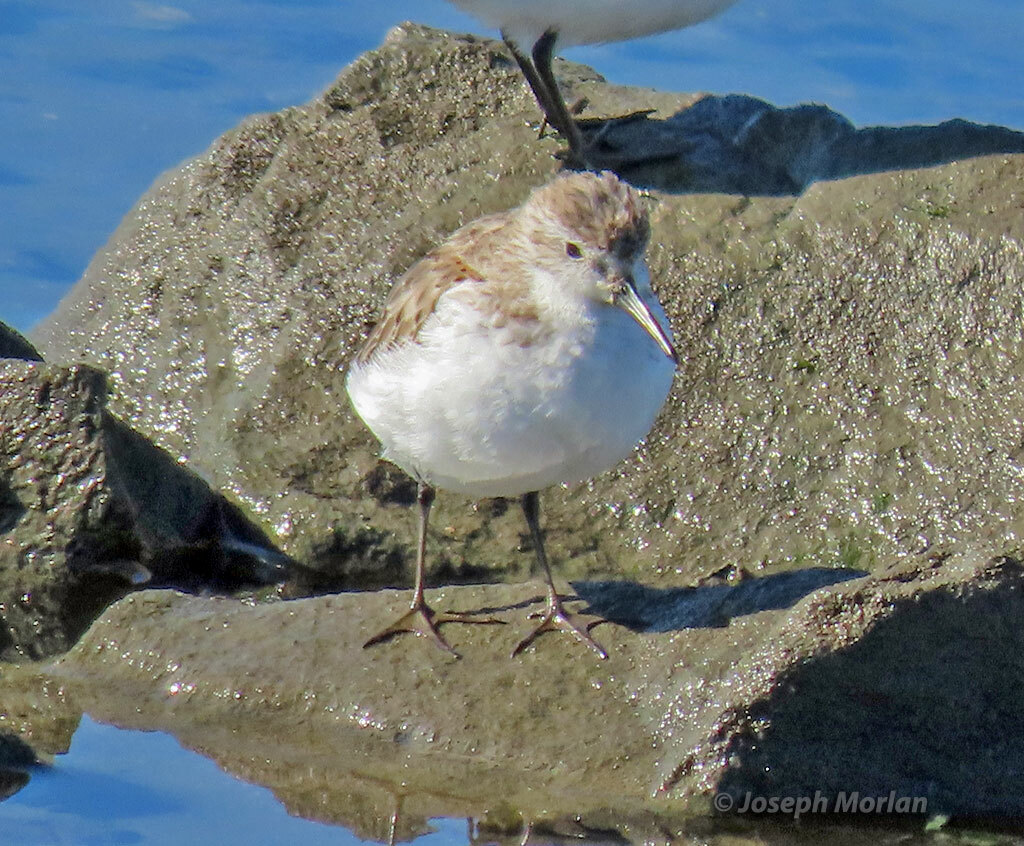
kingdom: Animalia
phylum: Chordata
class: Aves
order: Charadriiformes
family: Scolopacidae
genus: Calidris
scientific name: Calidris mauri
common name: Western sandpiper
